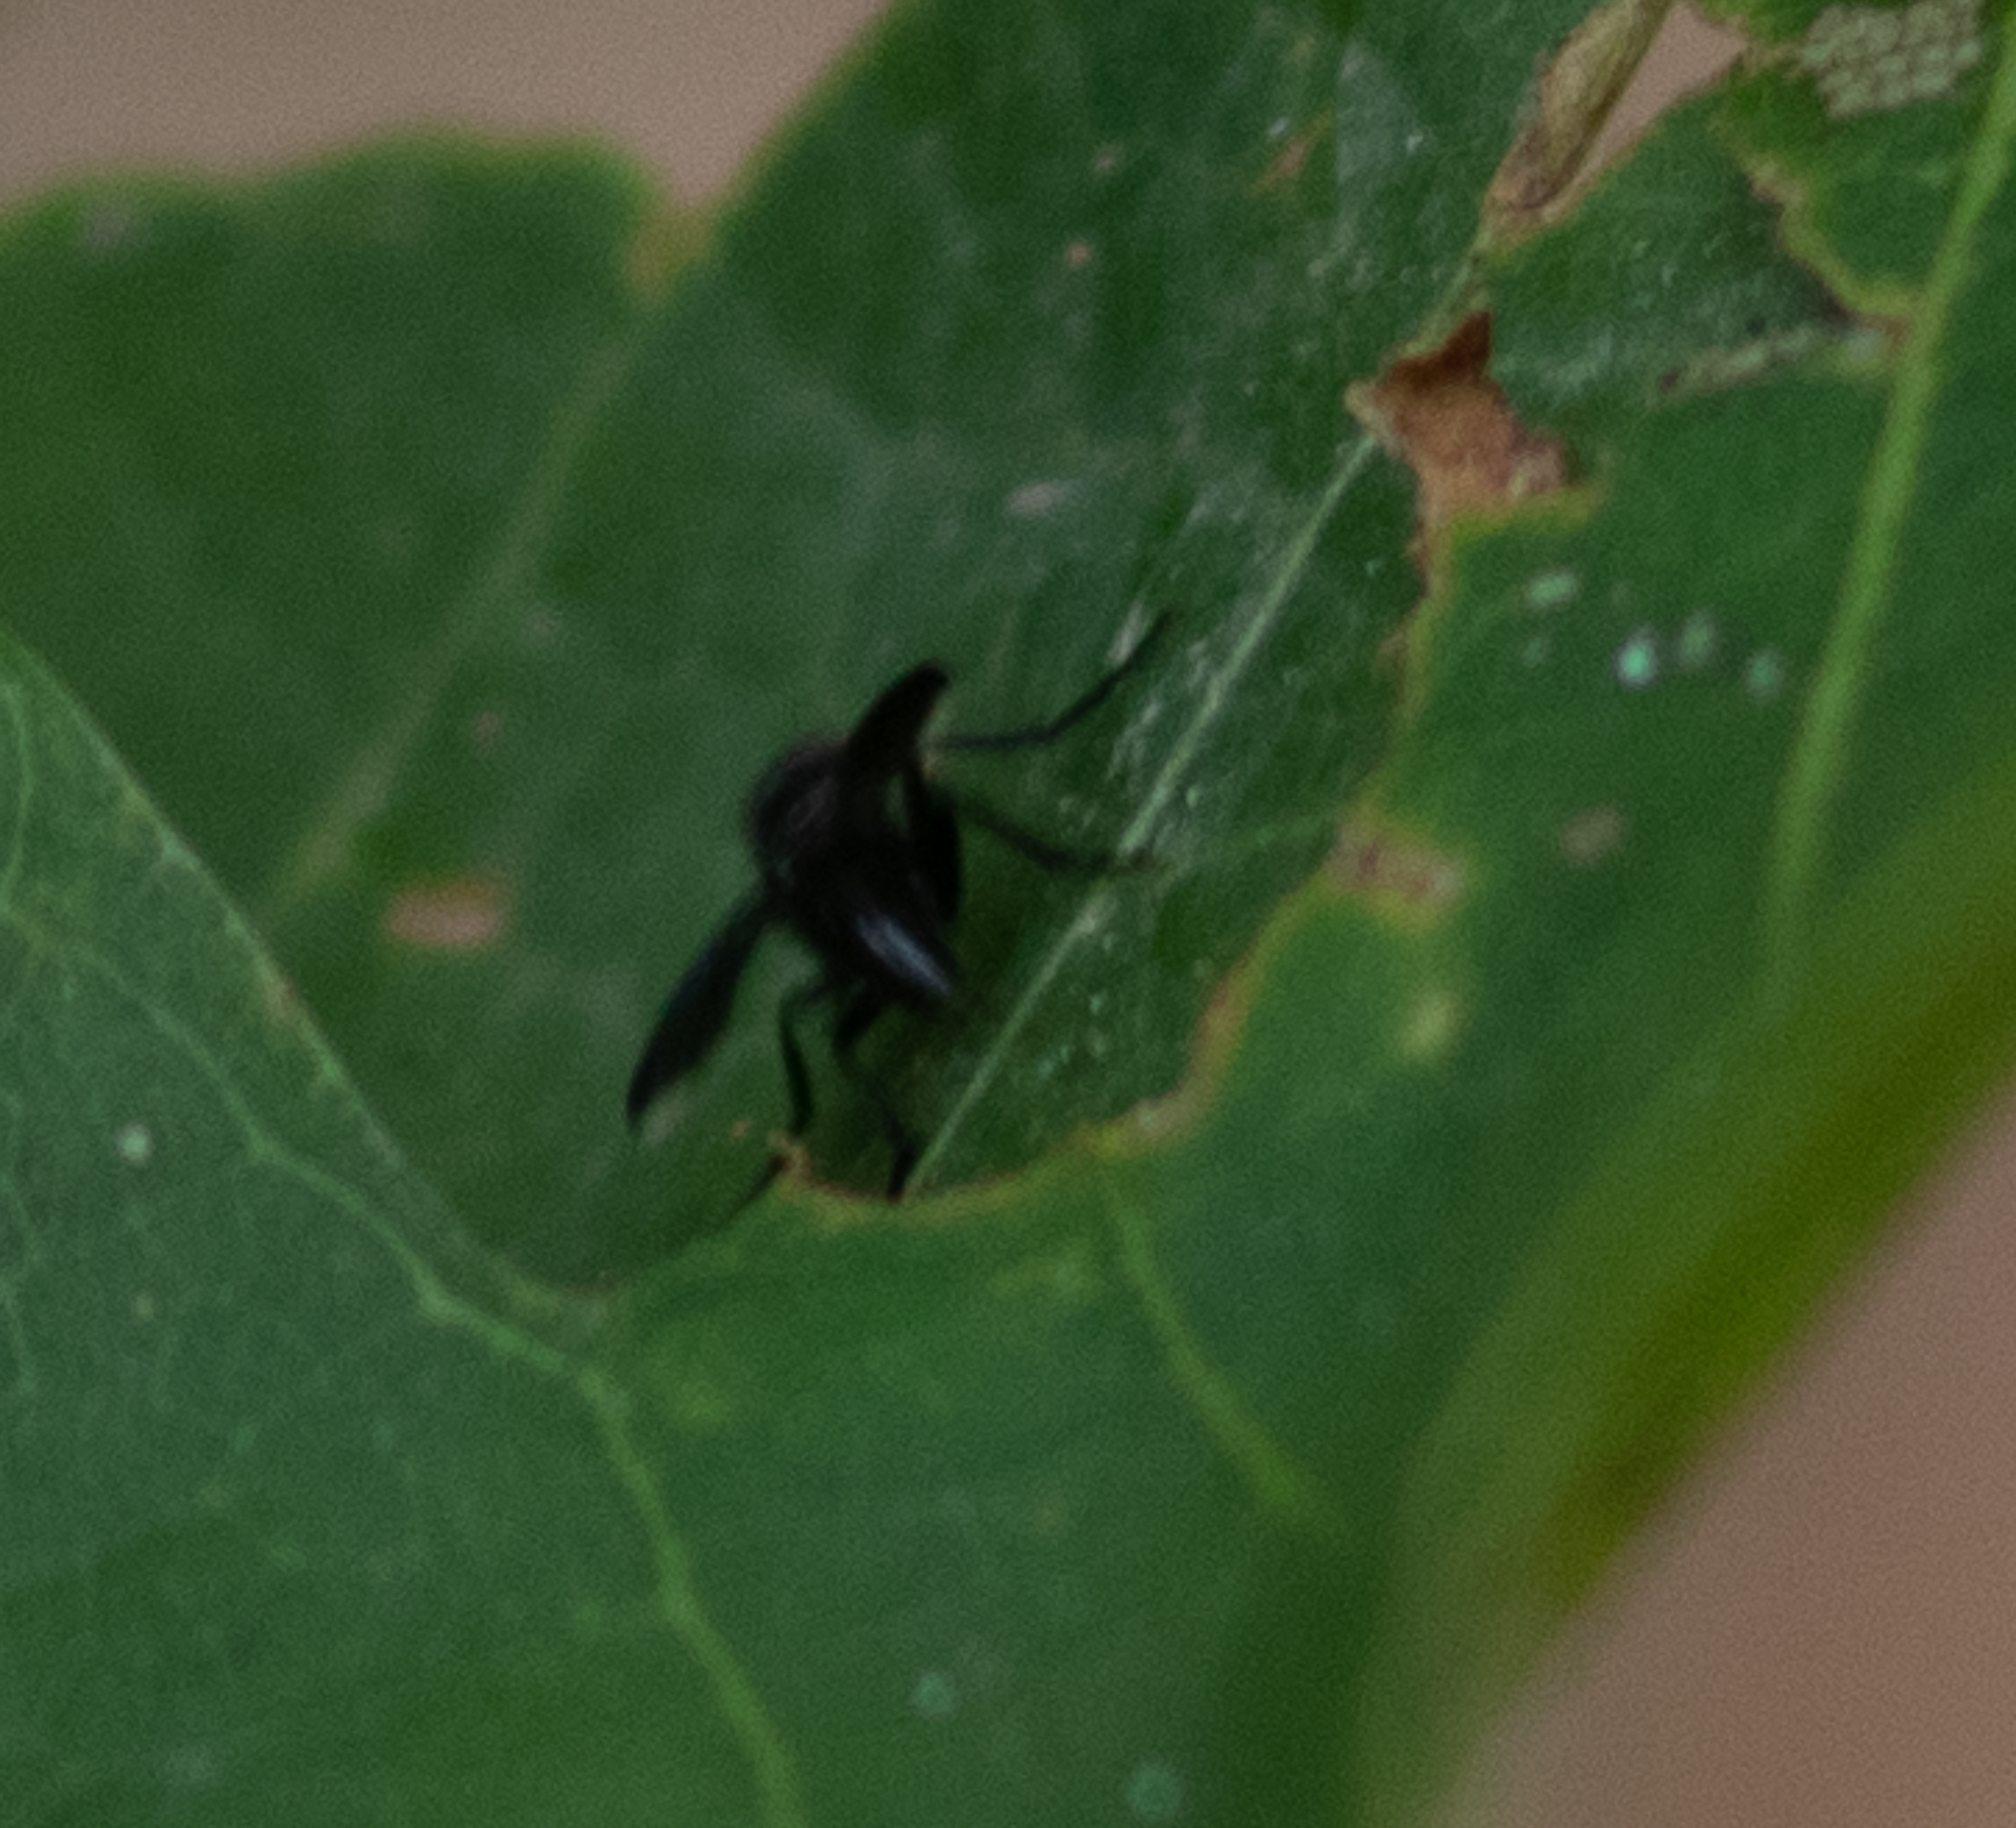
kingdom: Animalia
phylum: Arthropoda
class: Insecta
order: Diptera
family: Calliphoridae
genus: Melanophora
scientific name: Melanophora roralis
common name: Smoky-winged woodlouse-fly
